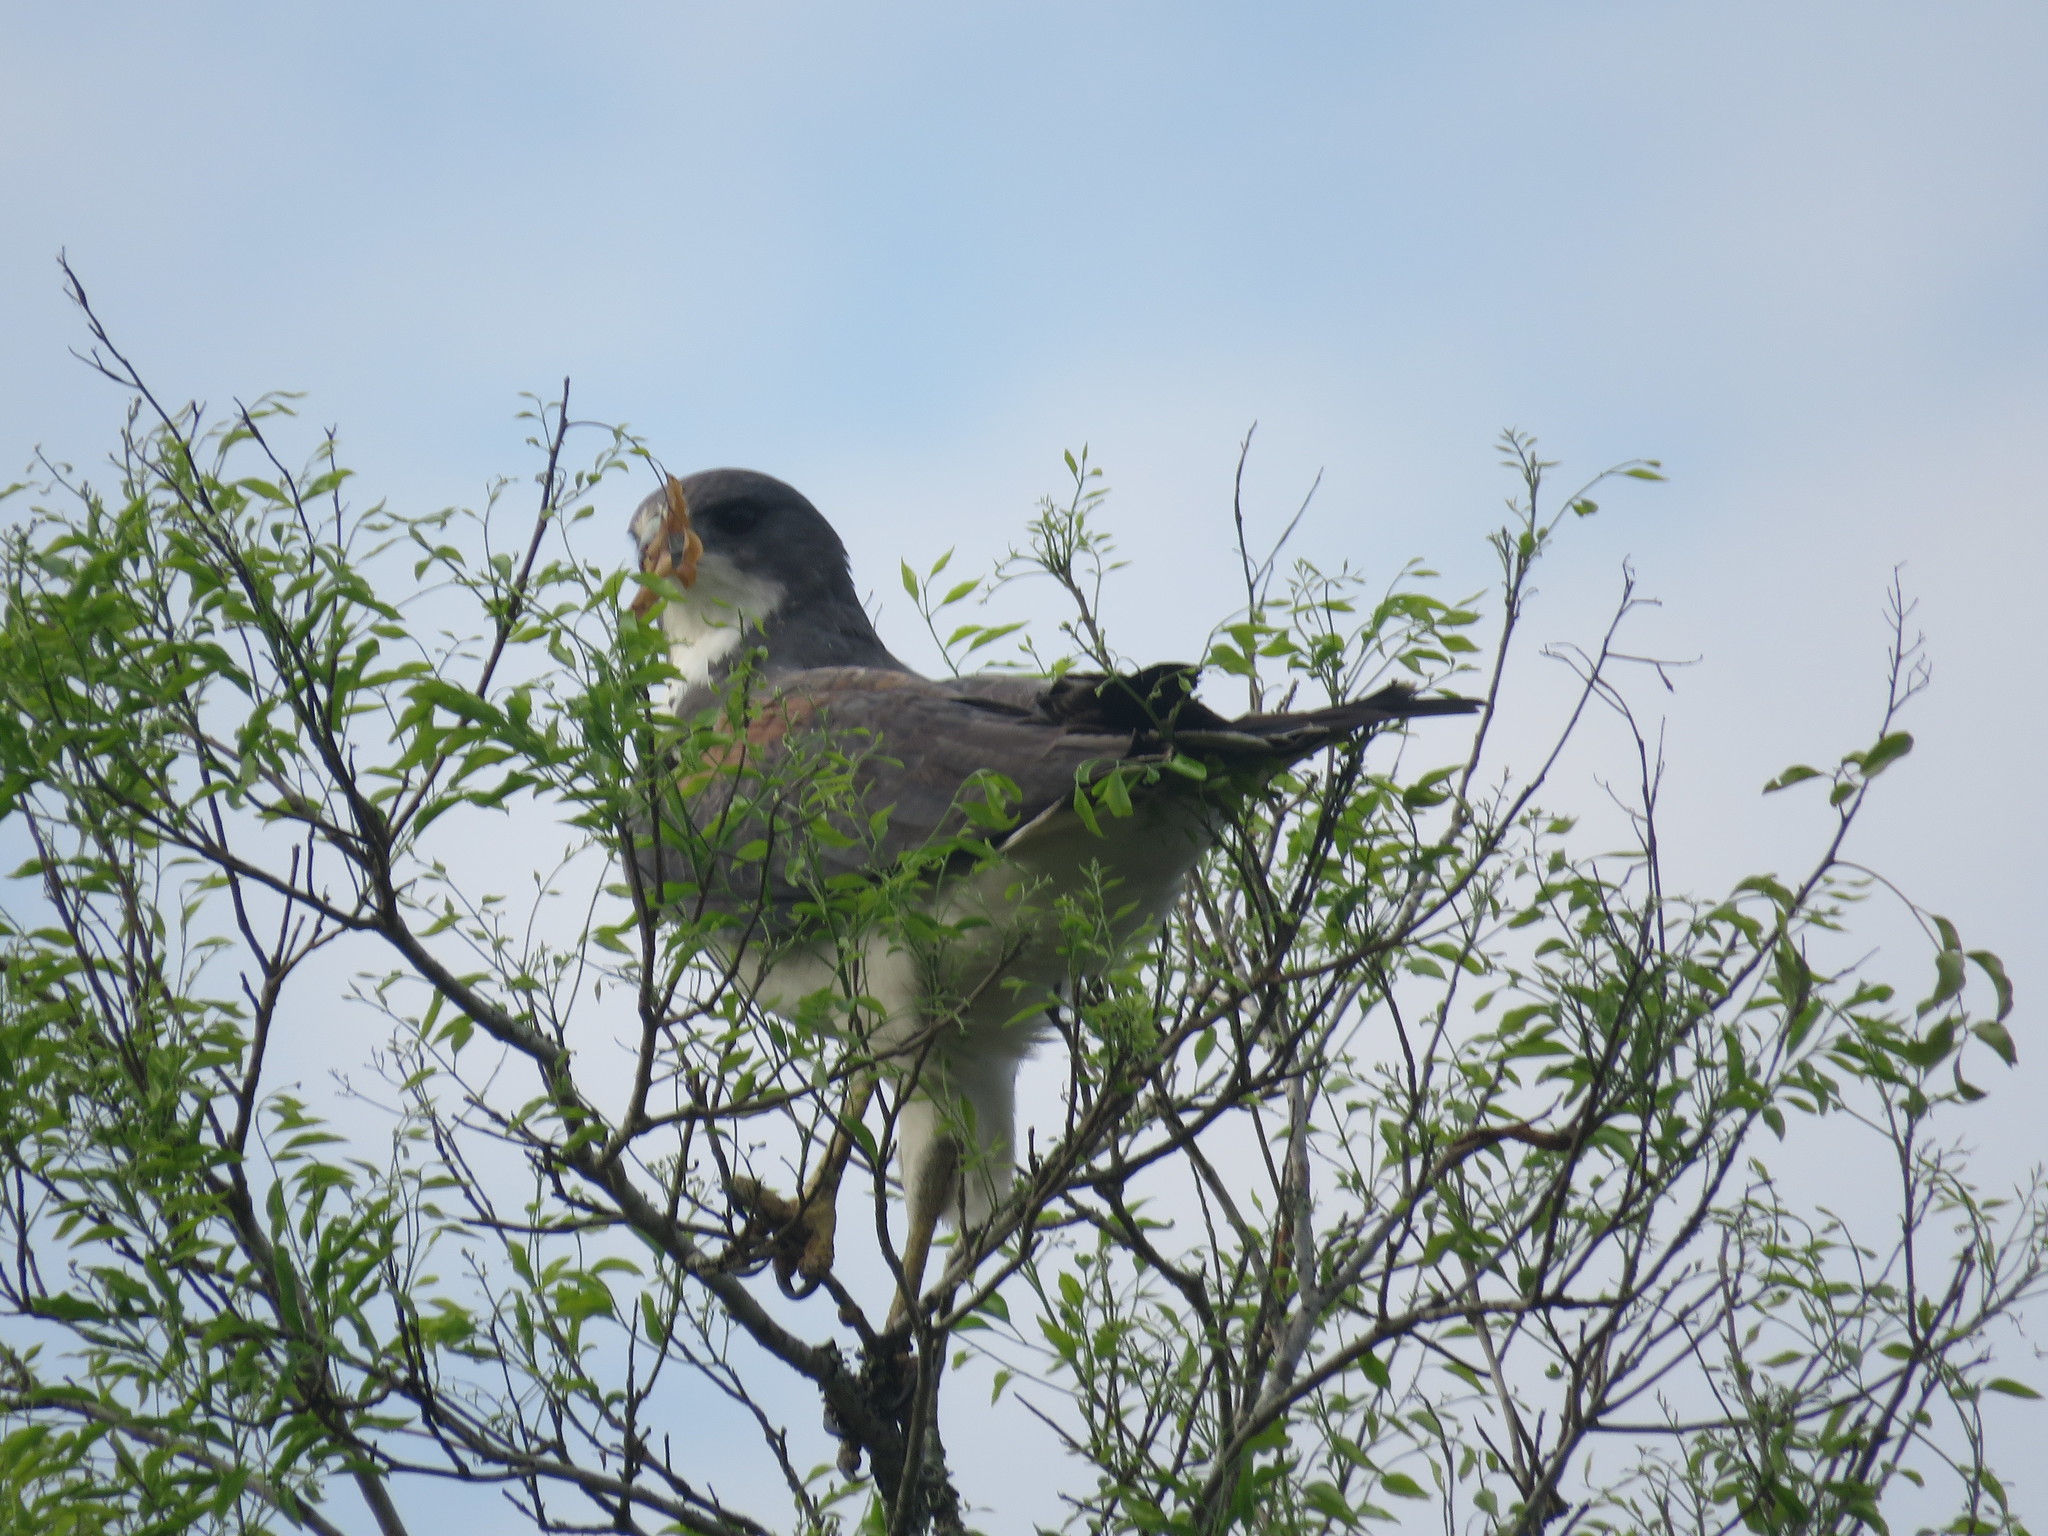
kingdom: Animalia
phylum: Chordata
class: Aves
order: Accipitriformes
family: Accipitridae
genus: Buteo
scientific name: Buteo albicaudatus
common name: White-tailed hawk
